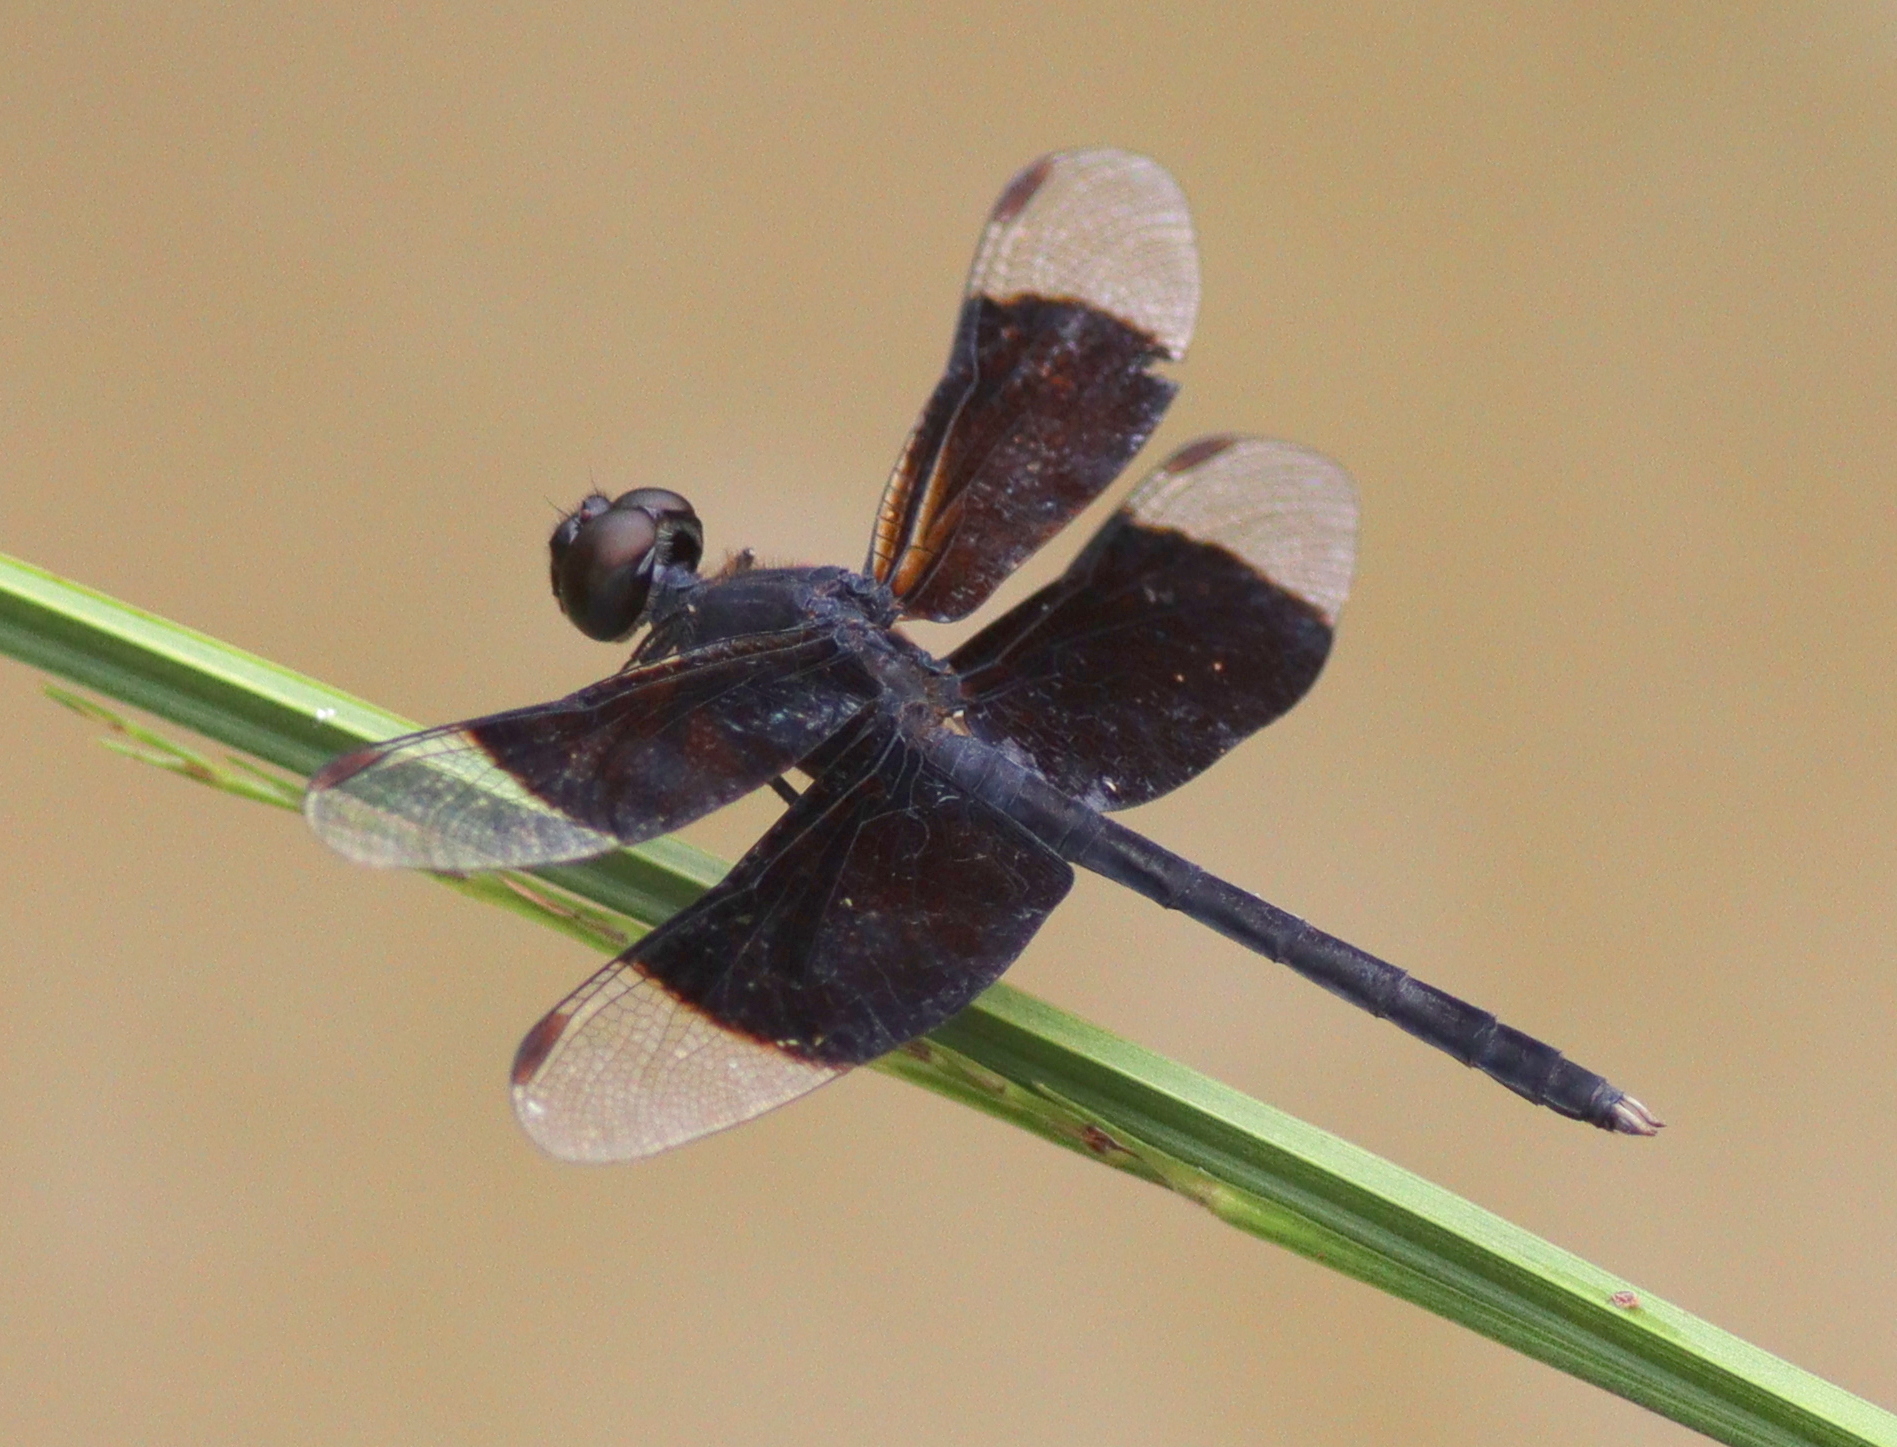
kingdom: Animalia
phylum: Arthropoda
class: Insecta
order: Odonata
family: Libellulidae
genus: Erythrodiplax
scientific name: Erythrodiplax funerea
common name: Black-winged dragonlet
